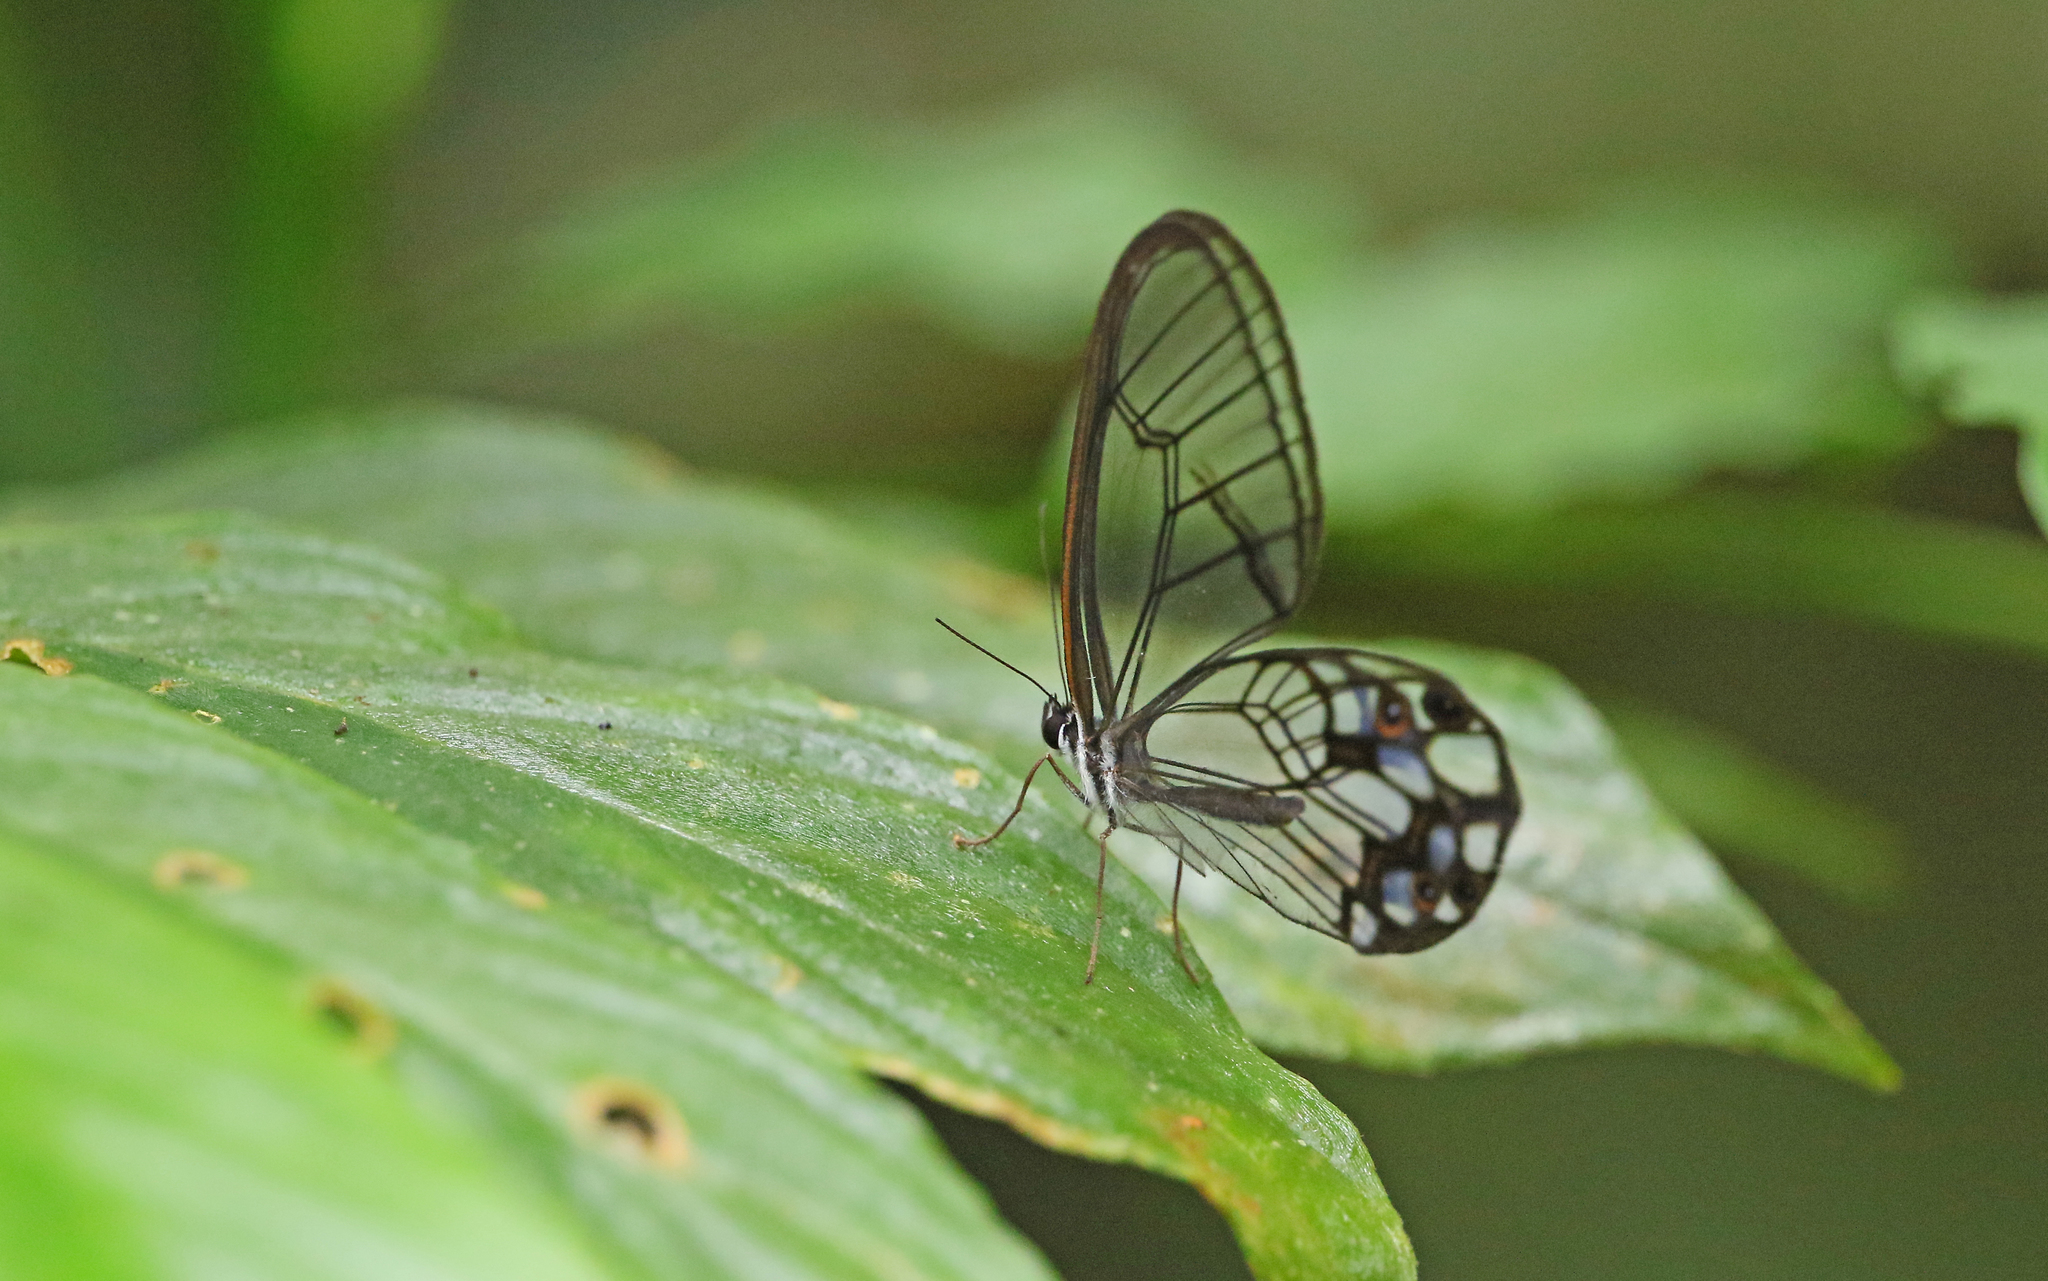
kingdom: Animalia
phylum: Arthropoda
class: Insecta
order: Lepidoptera
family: Nymphalidae
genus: Pseudohaetera
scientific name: Pseudohaetera hypaesia
